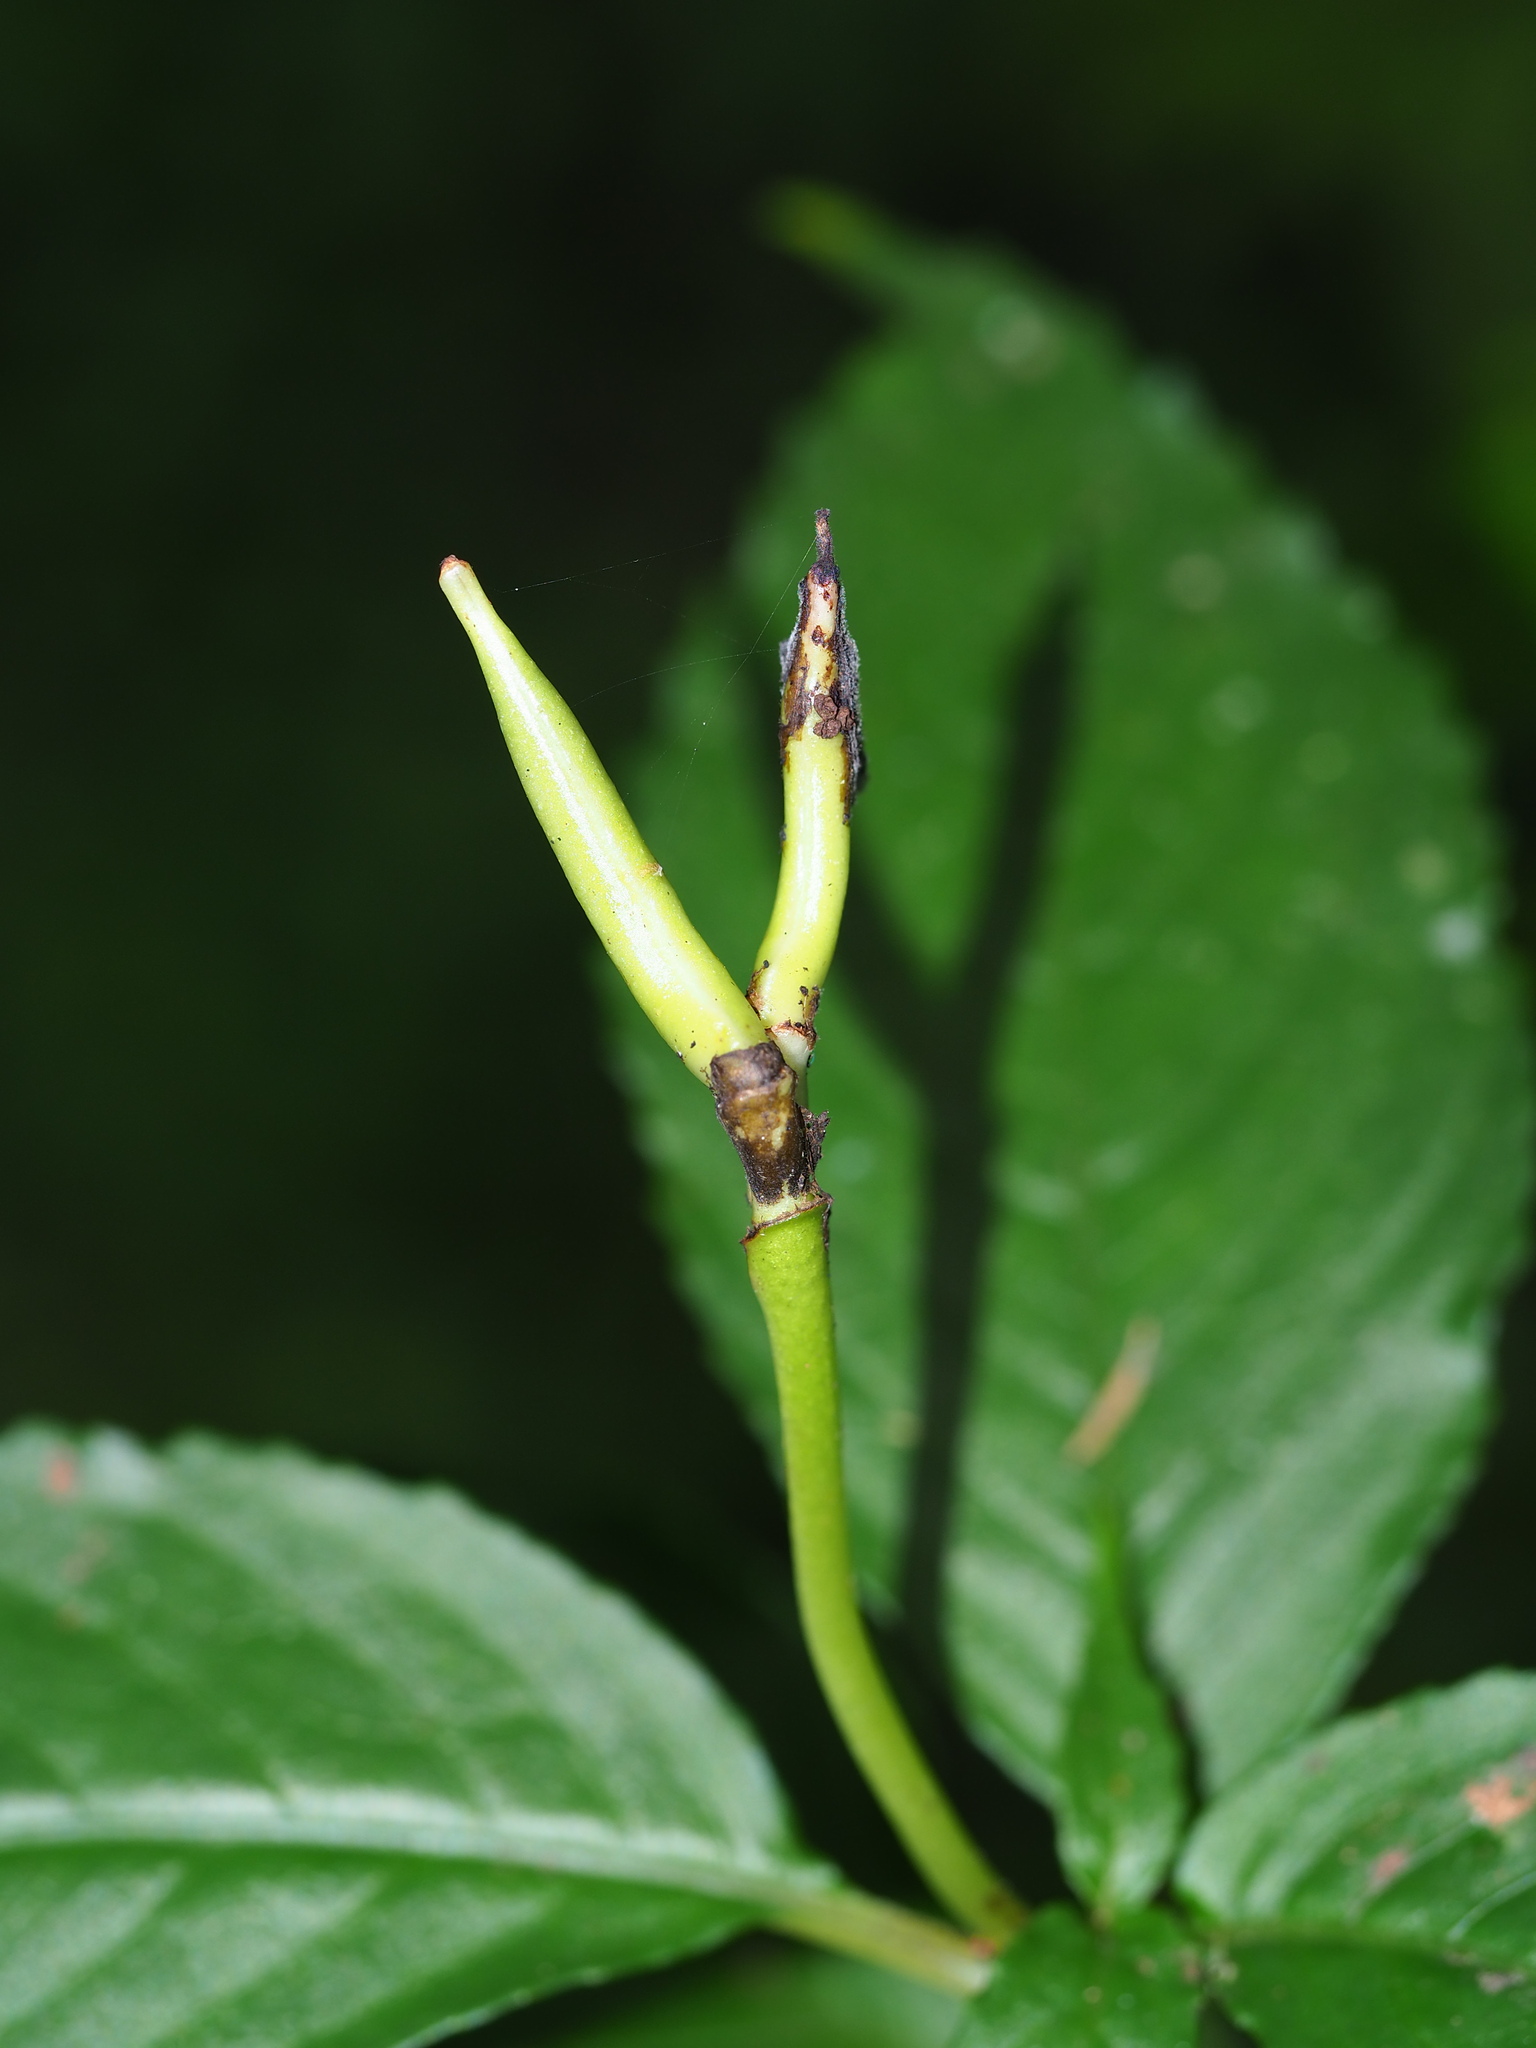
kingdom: Plantae
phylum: Tracheophyta
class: Magnoliopsida
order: Lamiales
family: Gesneriaceae
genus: Hemiboea
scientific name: Hemiboea bicornuta
